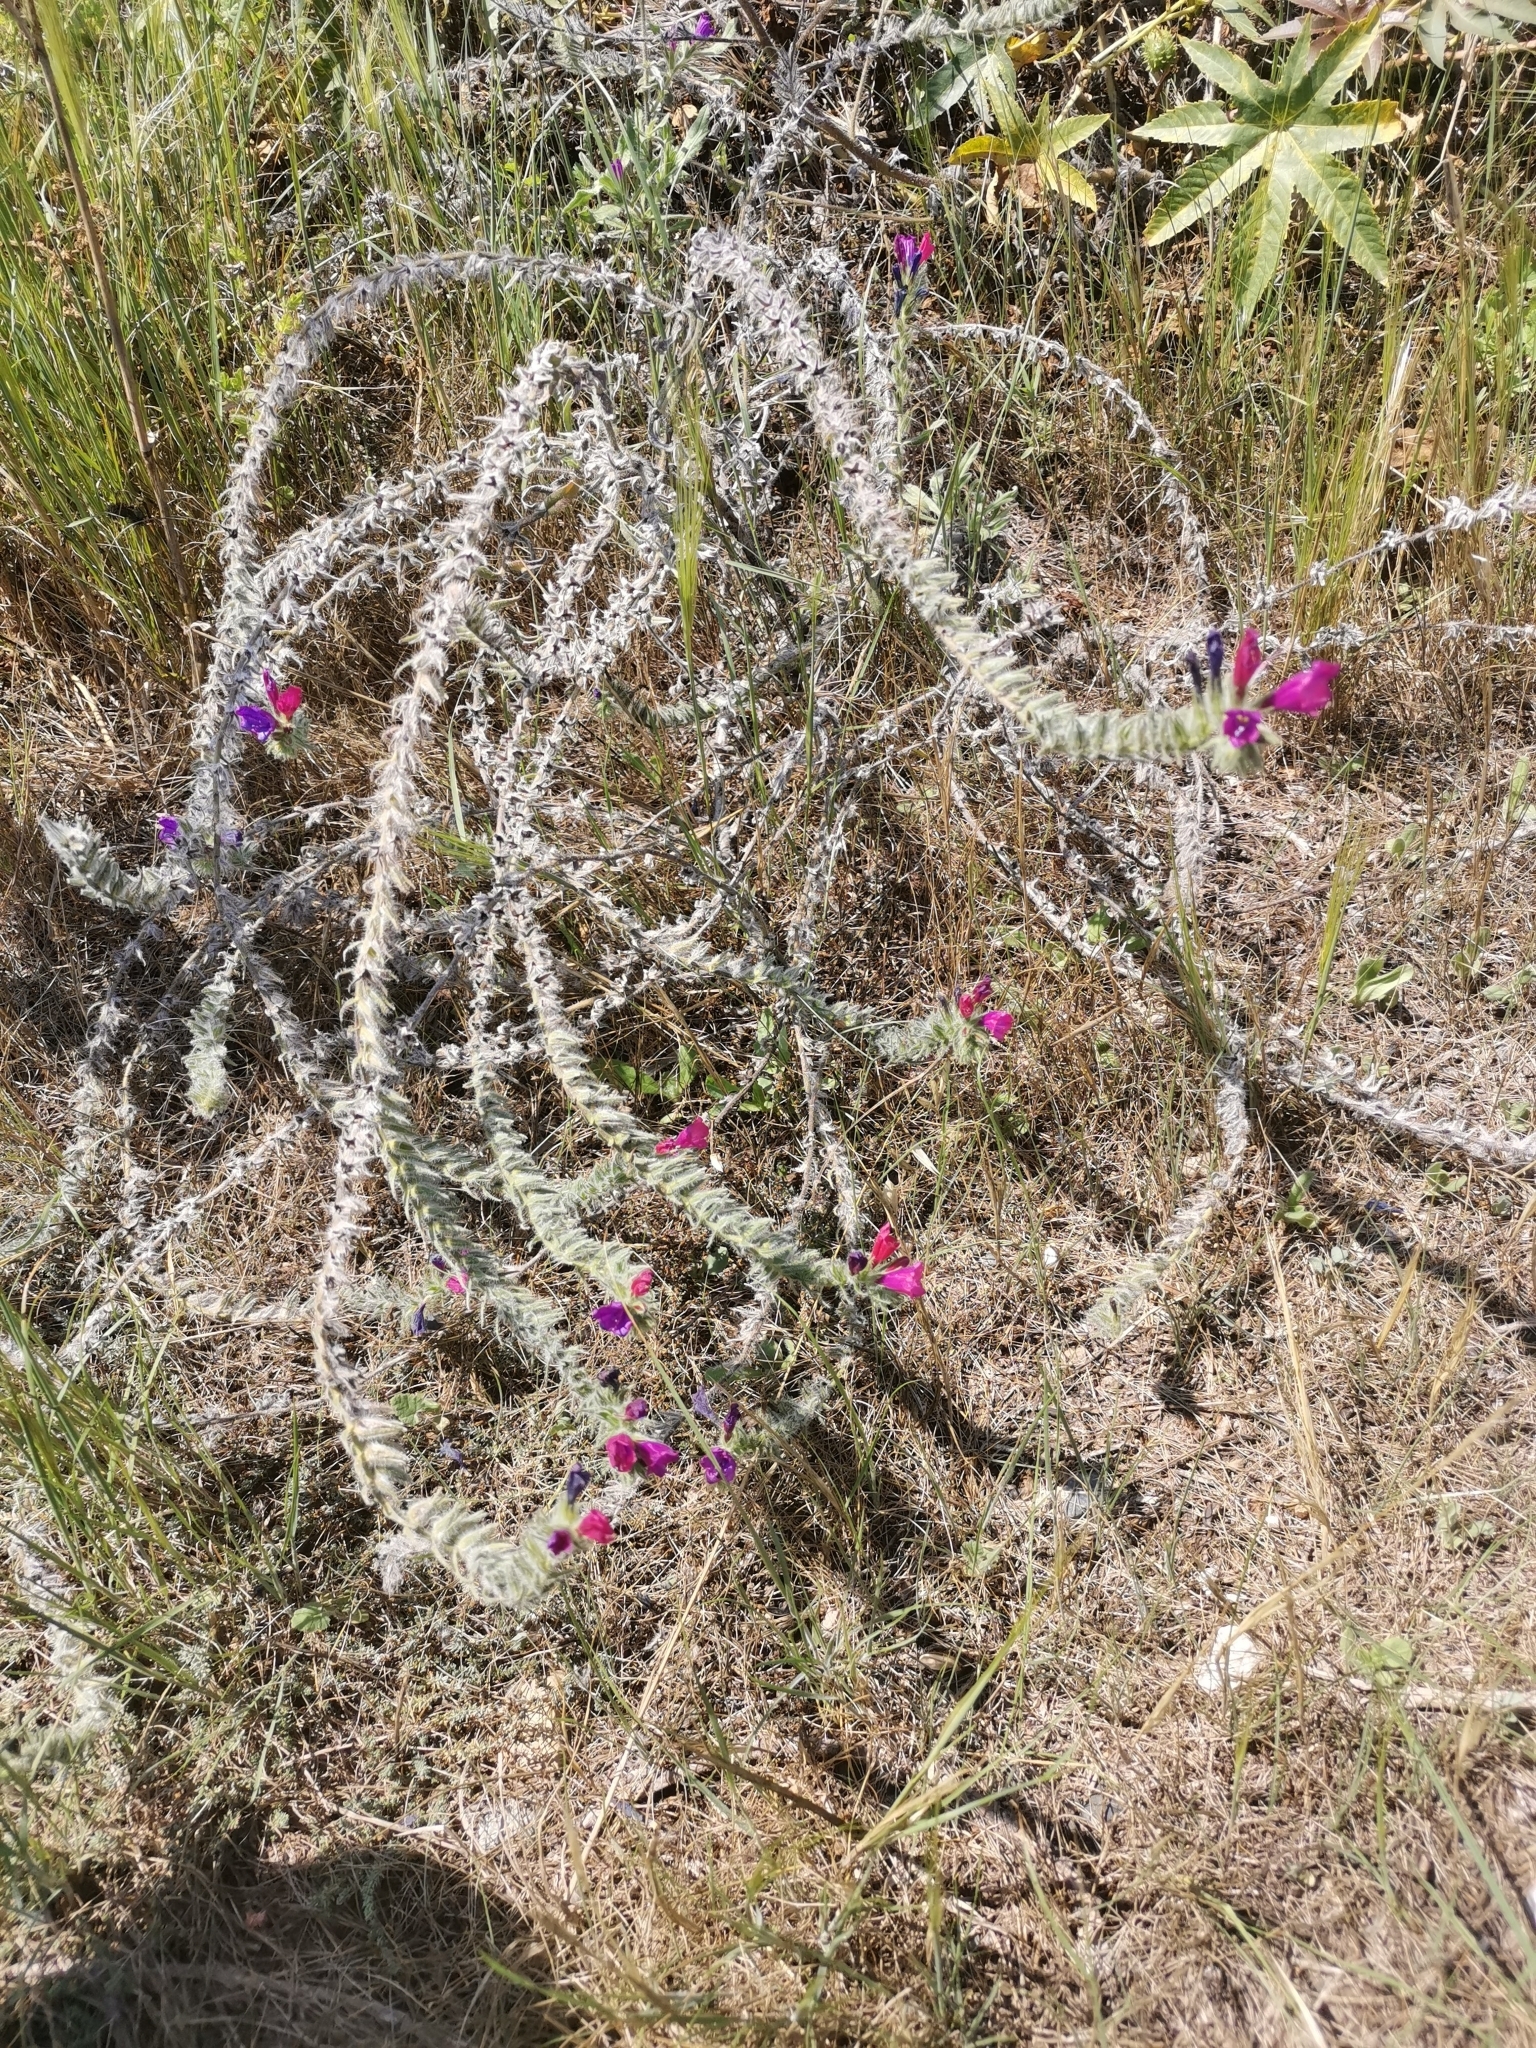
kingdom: Plantae
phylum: Tracheophyta
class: Magnoliopsida
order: Boraginales
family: Boraginaceae
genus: Echium
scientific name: Echium sabulicola
